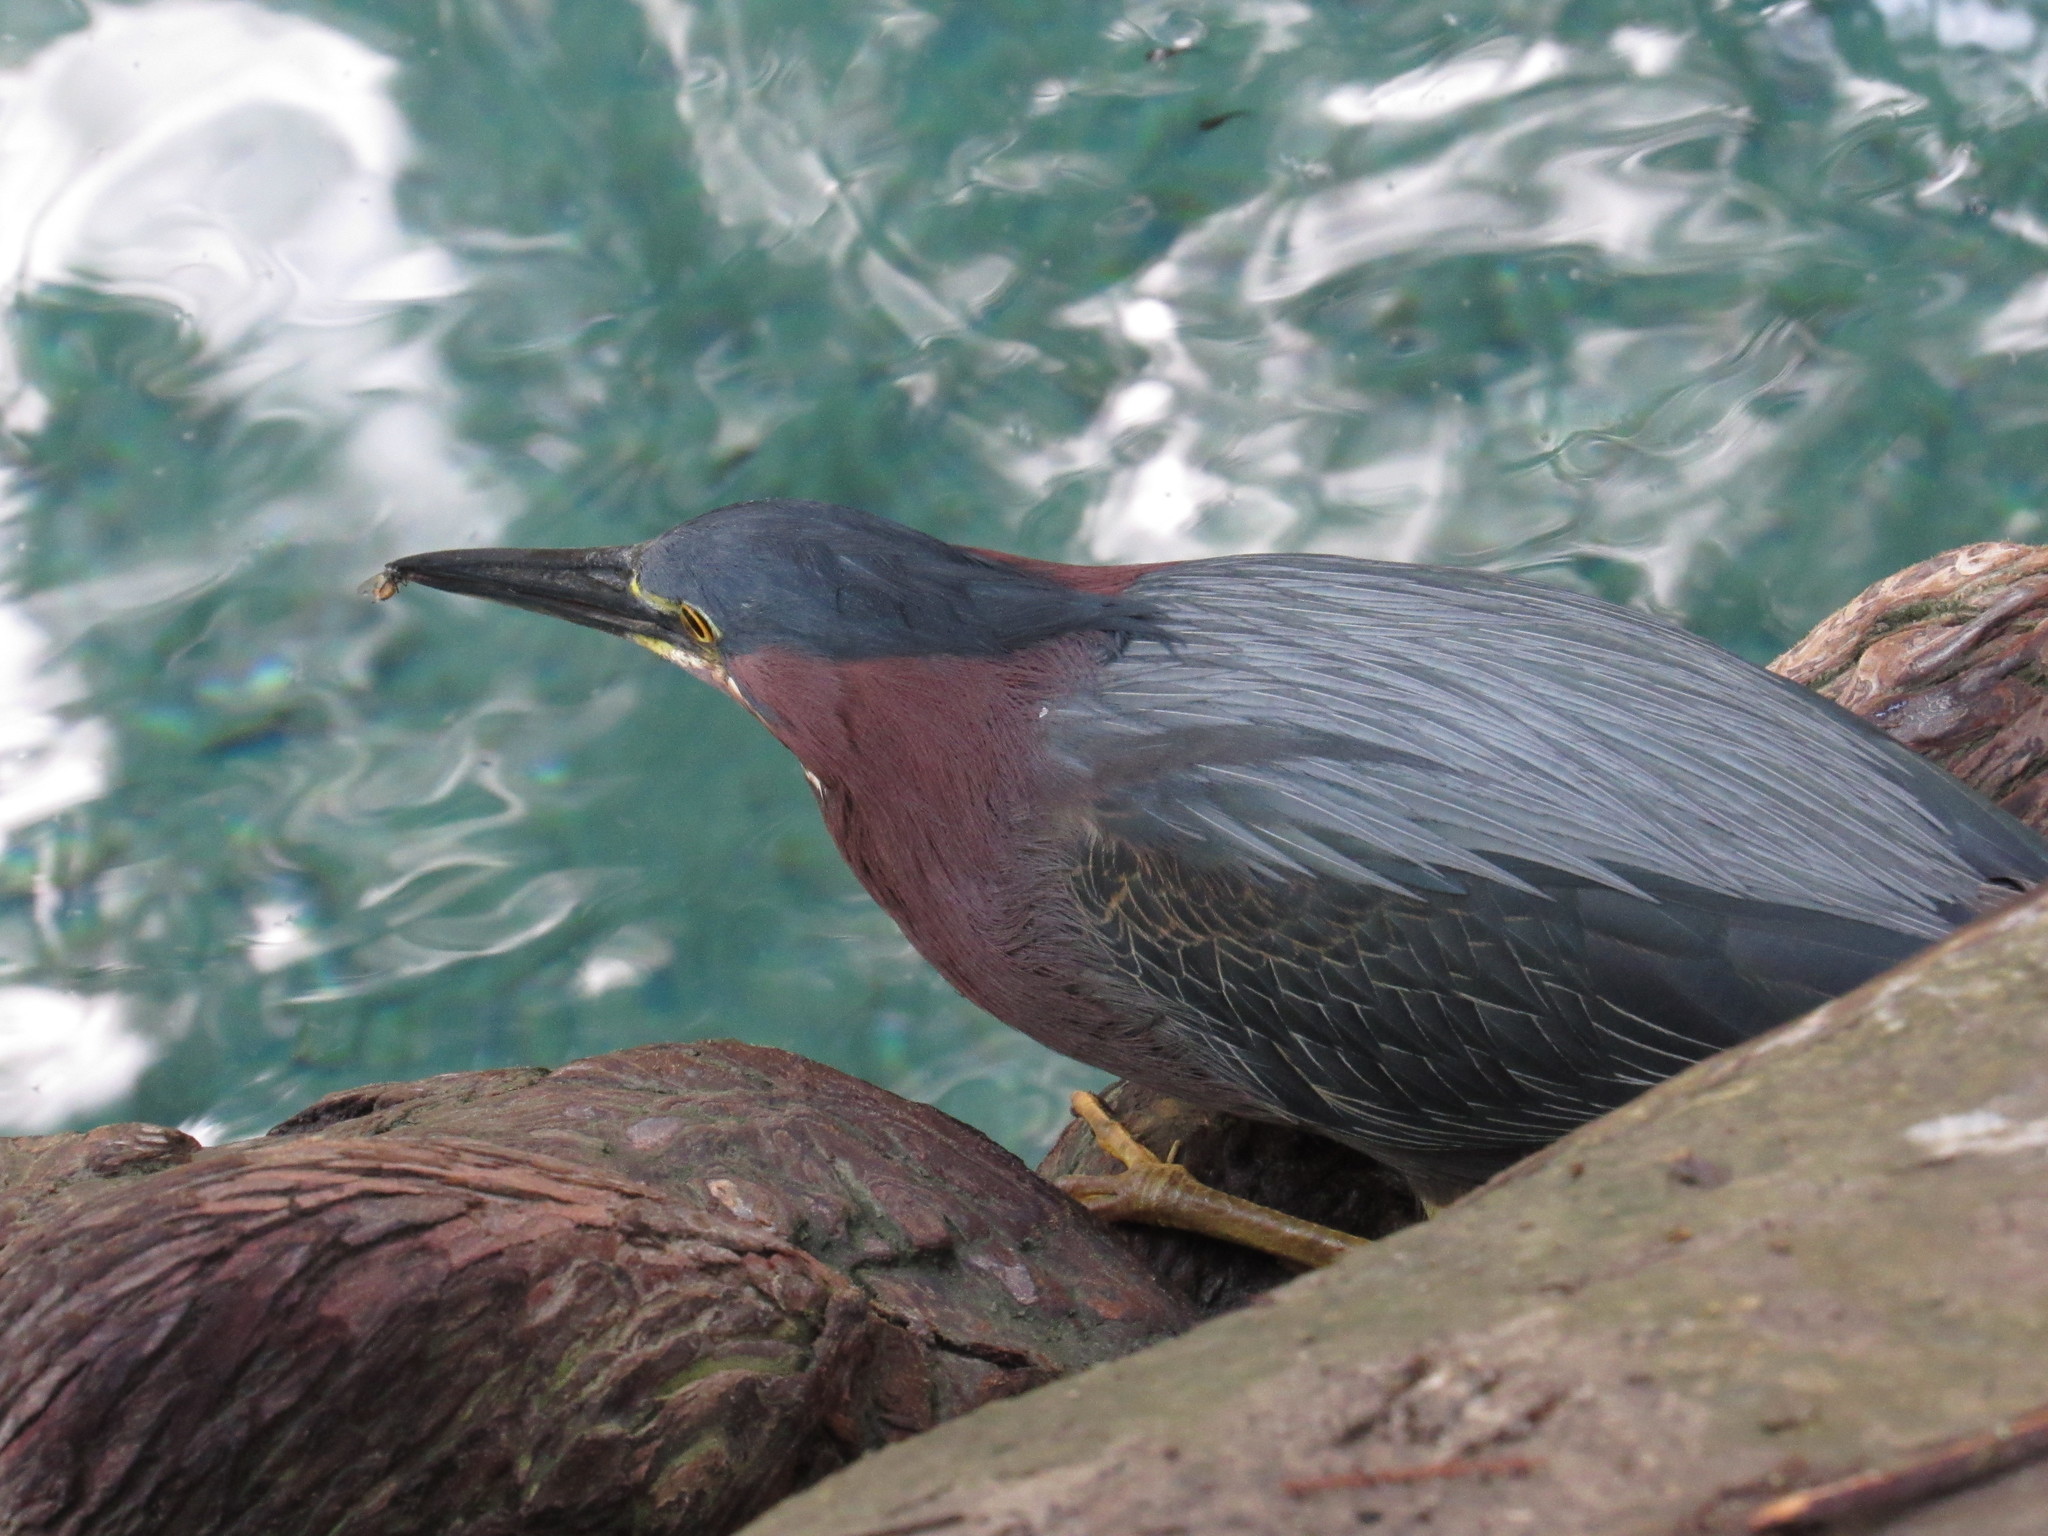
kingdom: Animalia
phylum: Chordata
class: Aves
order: Pelecaniformes
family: Ardeidae
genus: Butorides
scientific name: Butorides virescens
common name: Green heron
